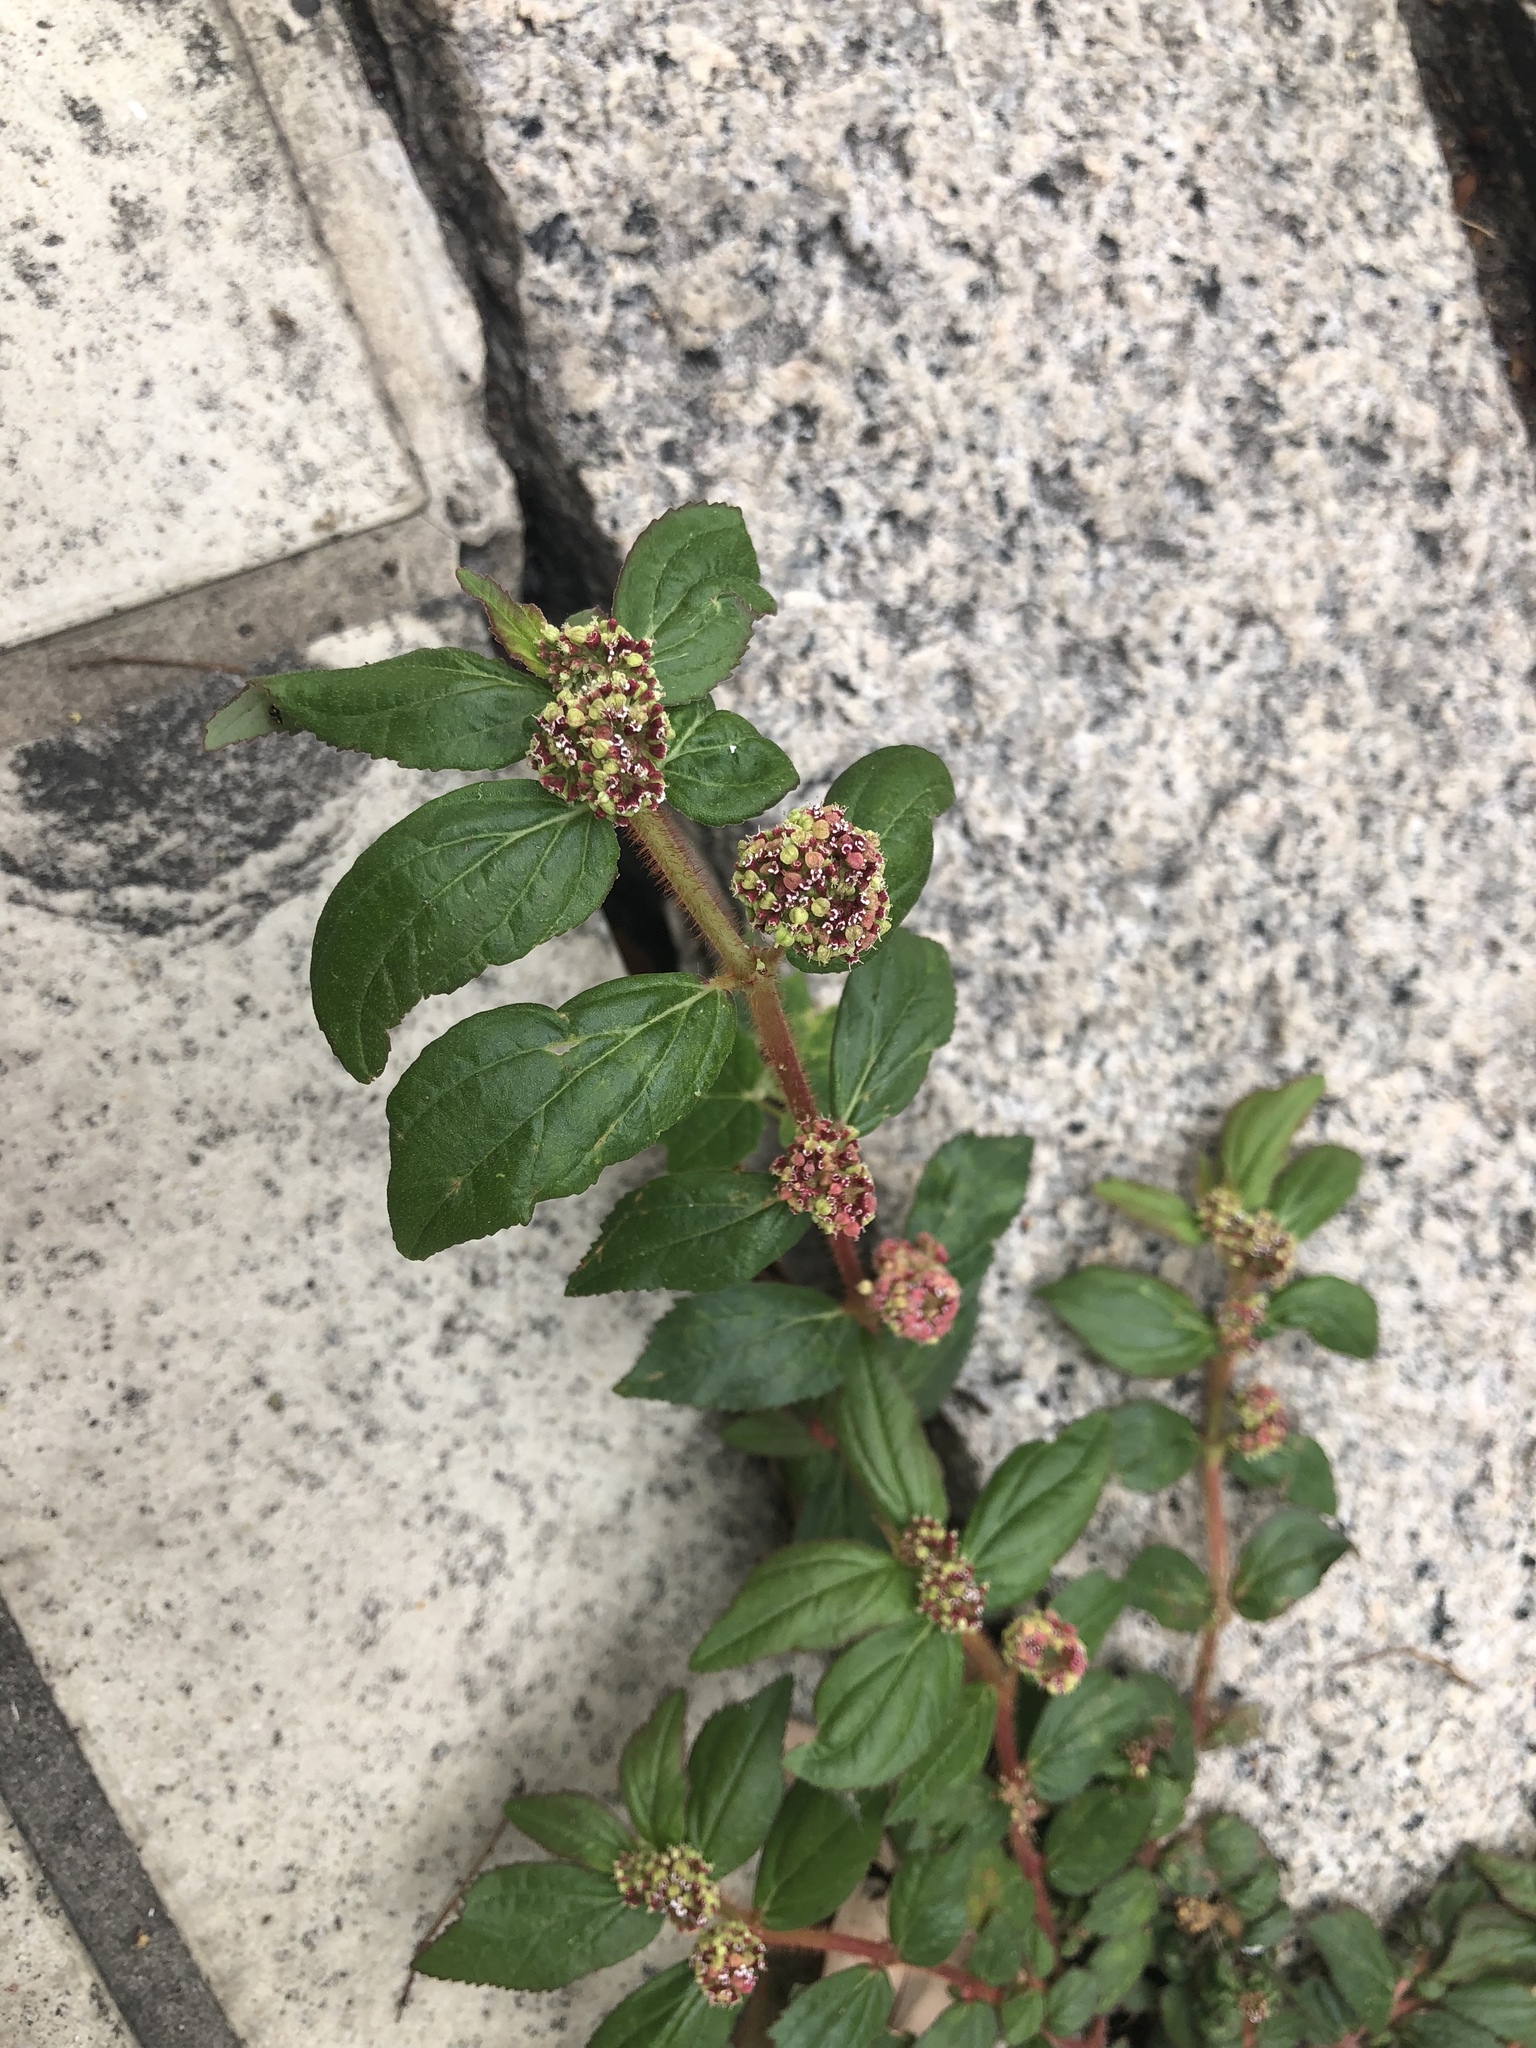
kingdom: Plantae
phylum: Tracheophyta
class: Magnoliopsida
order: Malpighiales
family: Euphorbiaceae
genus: Euphorbia
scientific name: Euphorbia hirta
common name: Pillpod sandmat
